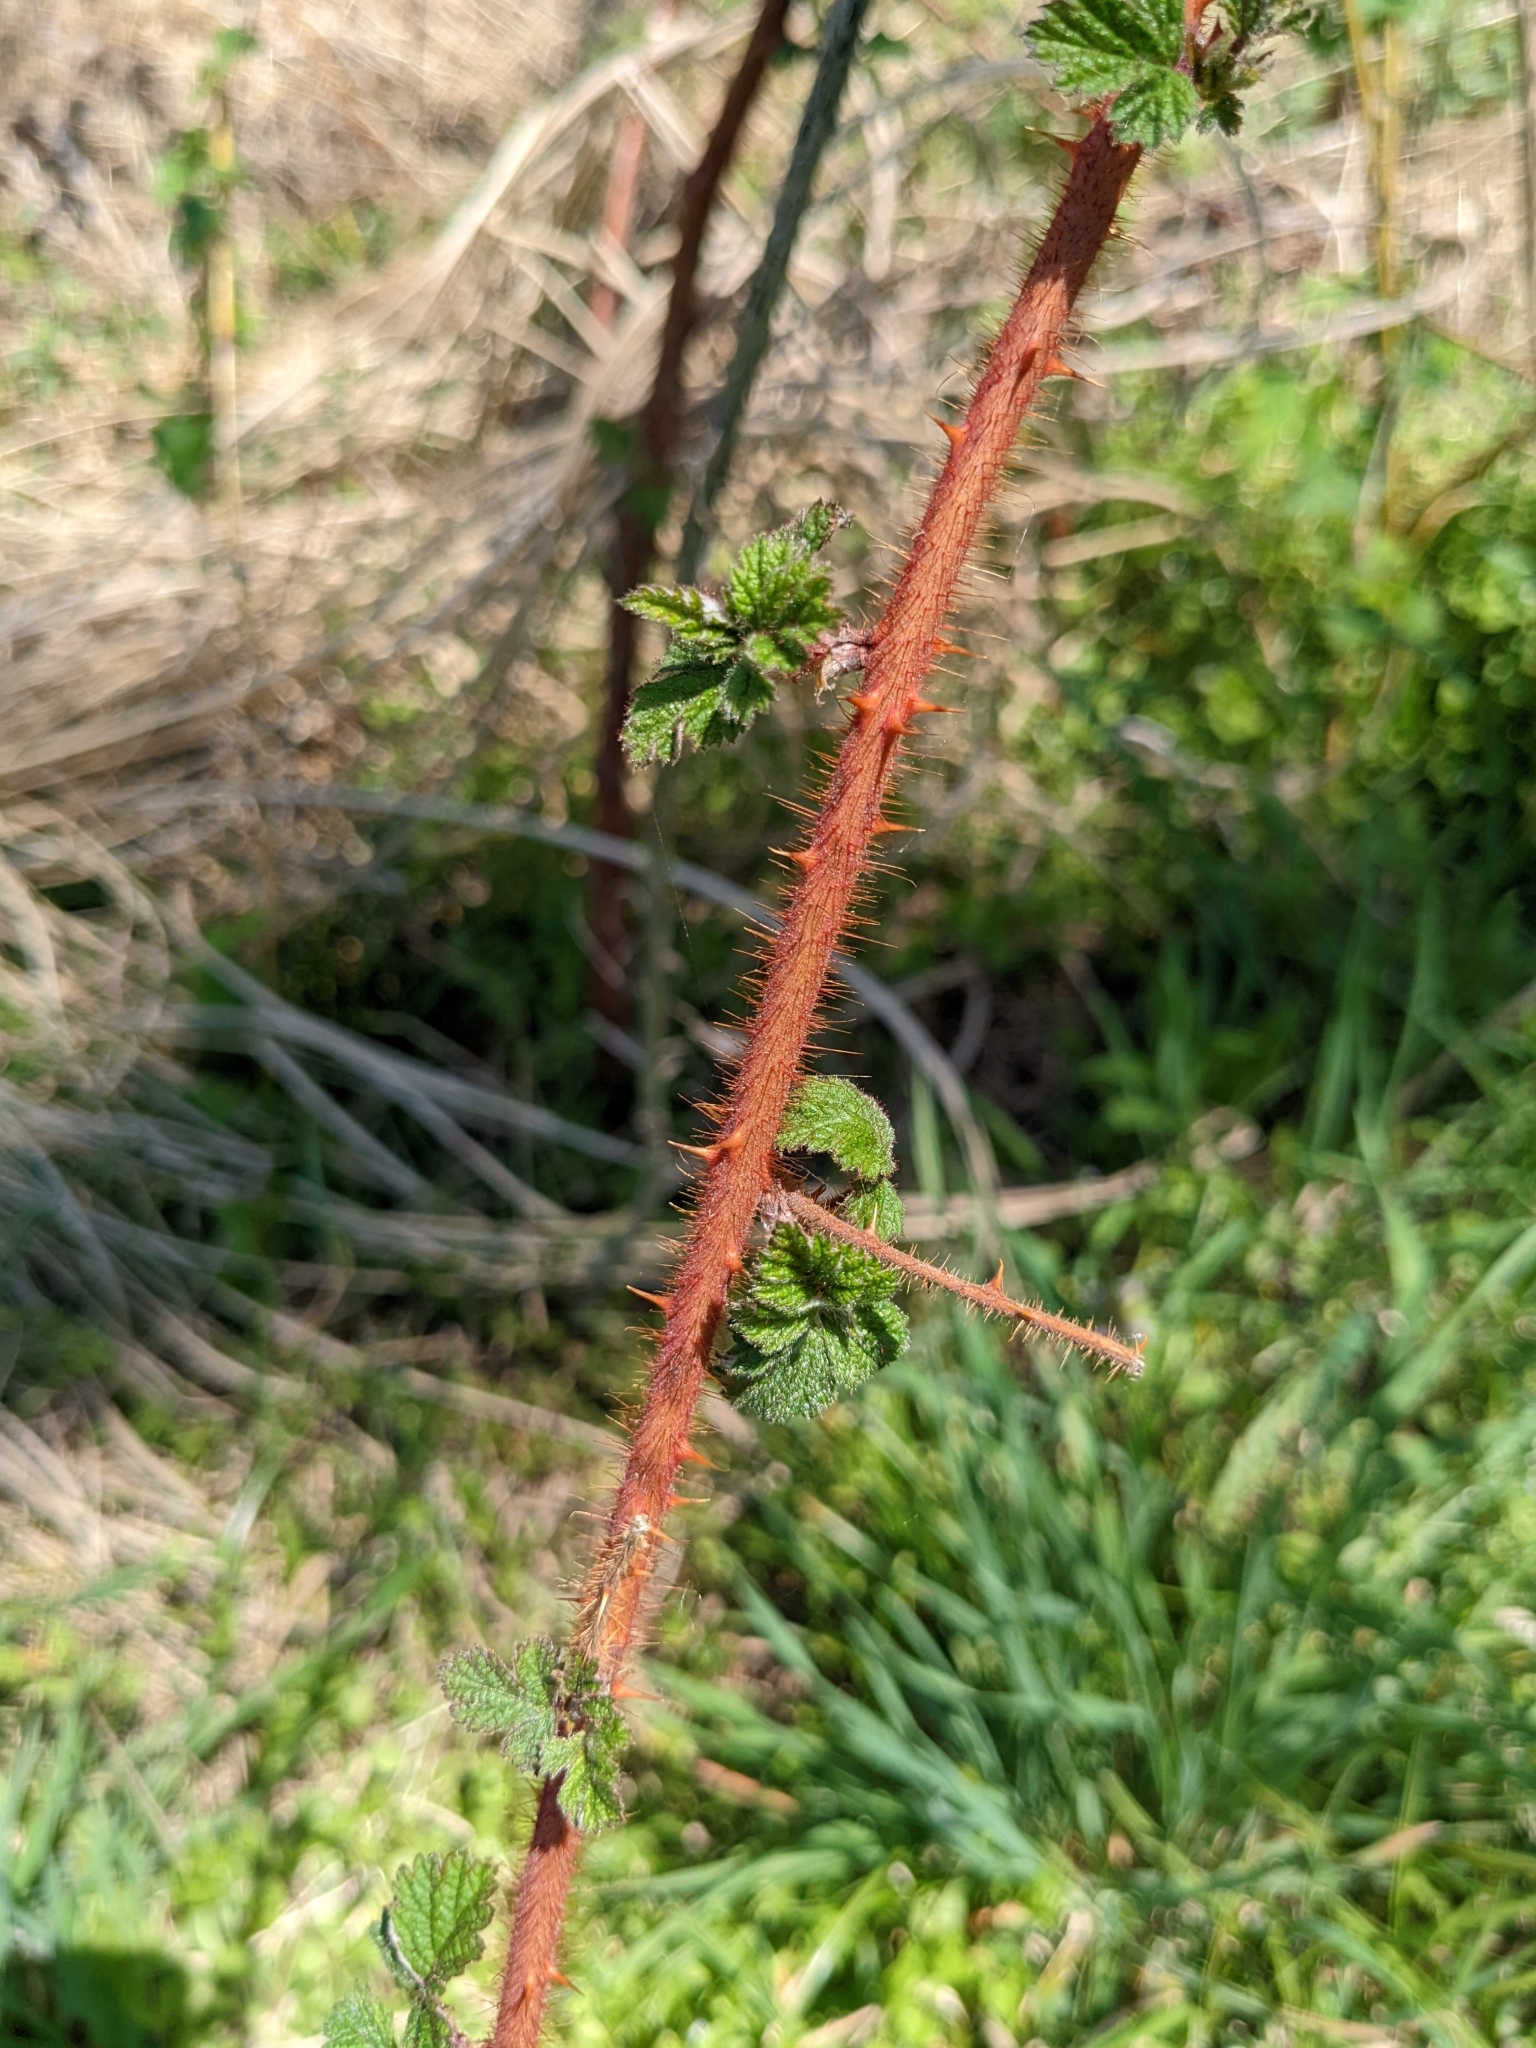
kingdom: Plantae
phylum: Tracheophyta
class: Magnoliopsida
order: Rosales
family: Rosaceae
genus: Rubus
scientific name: Rubus phoenicolasius
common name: Japanese wineberry
